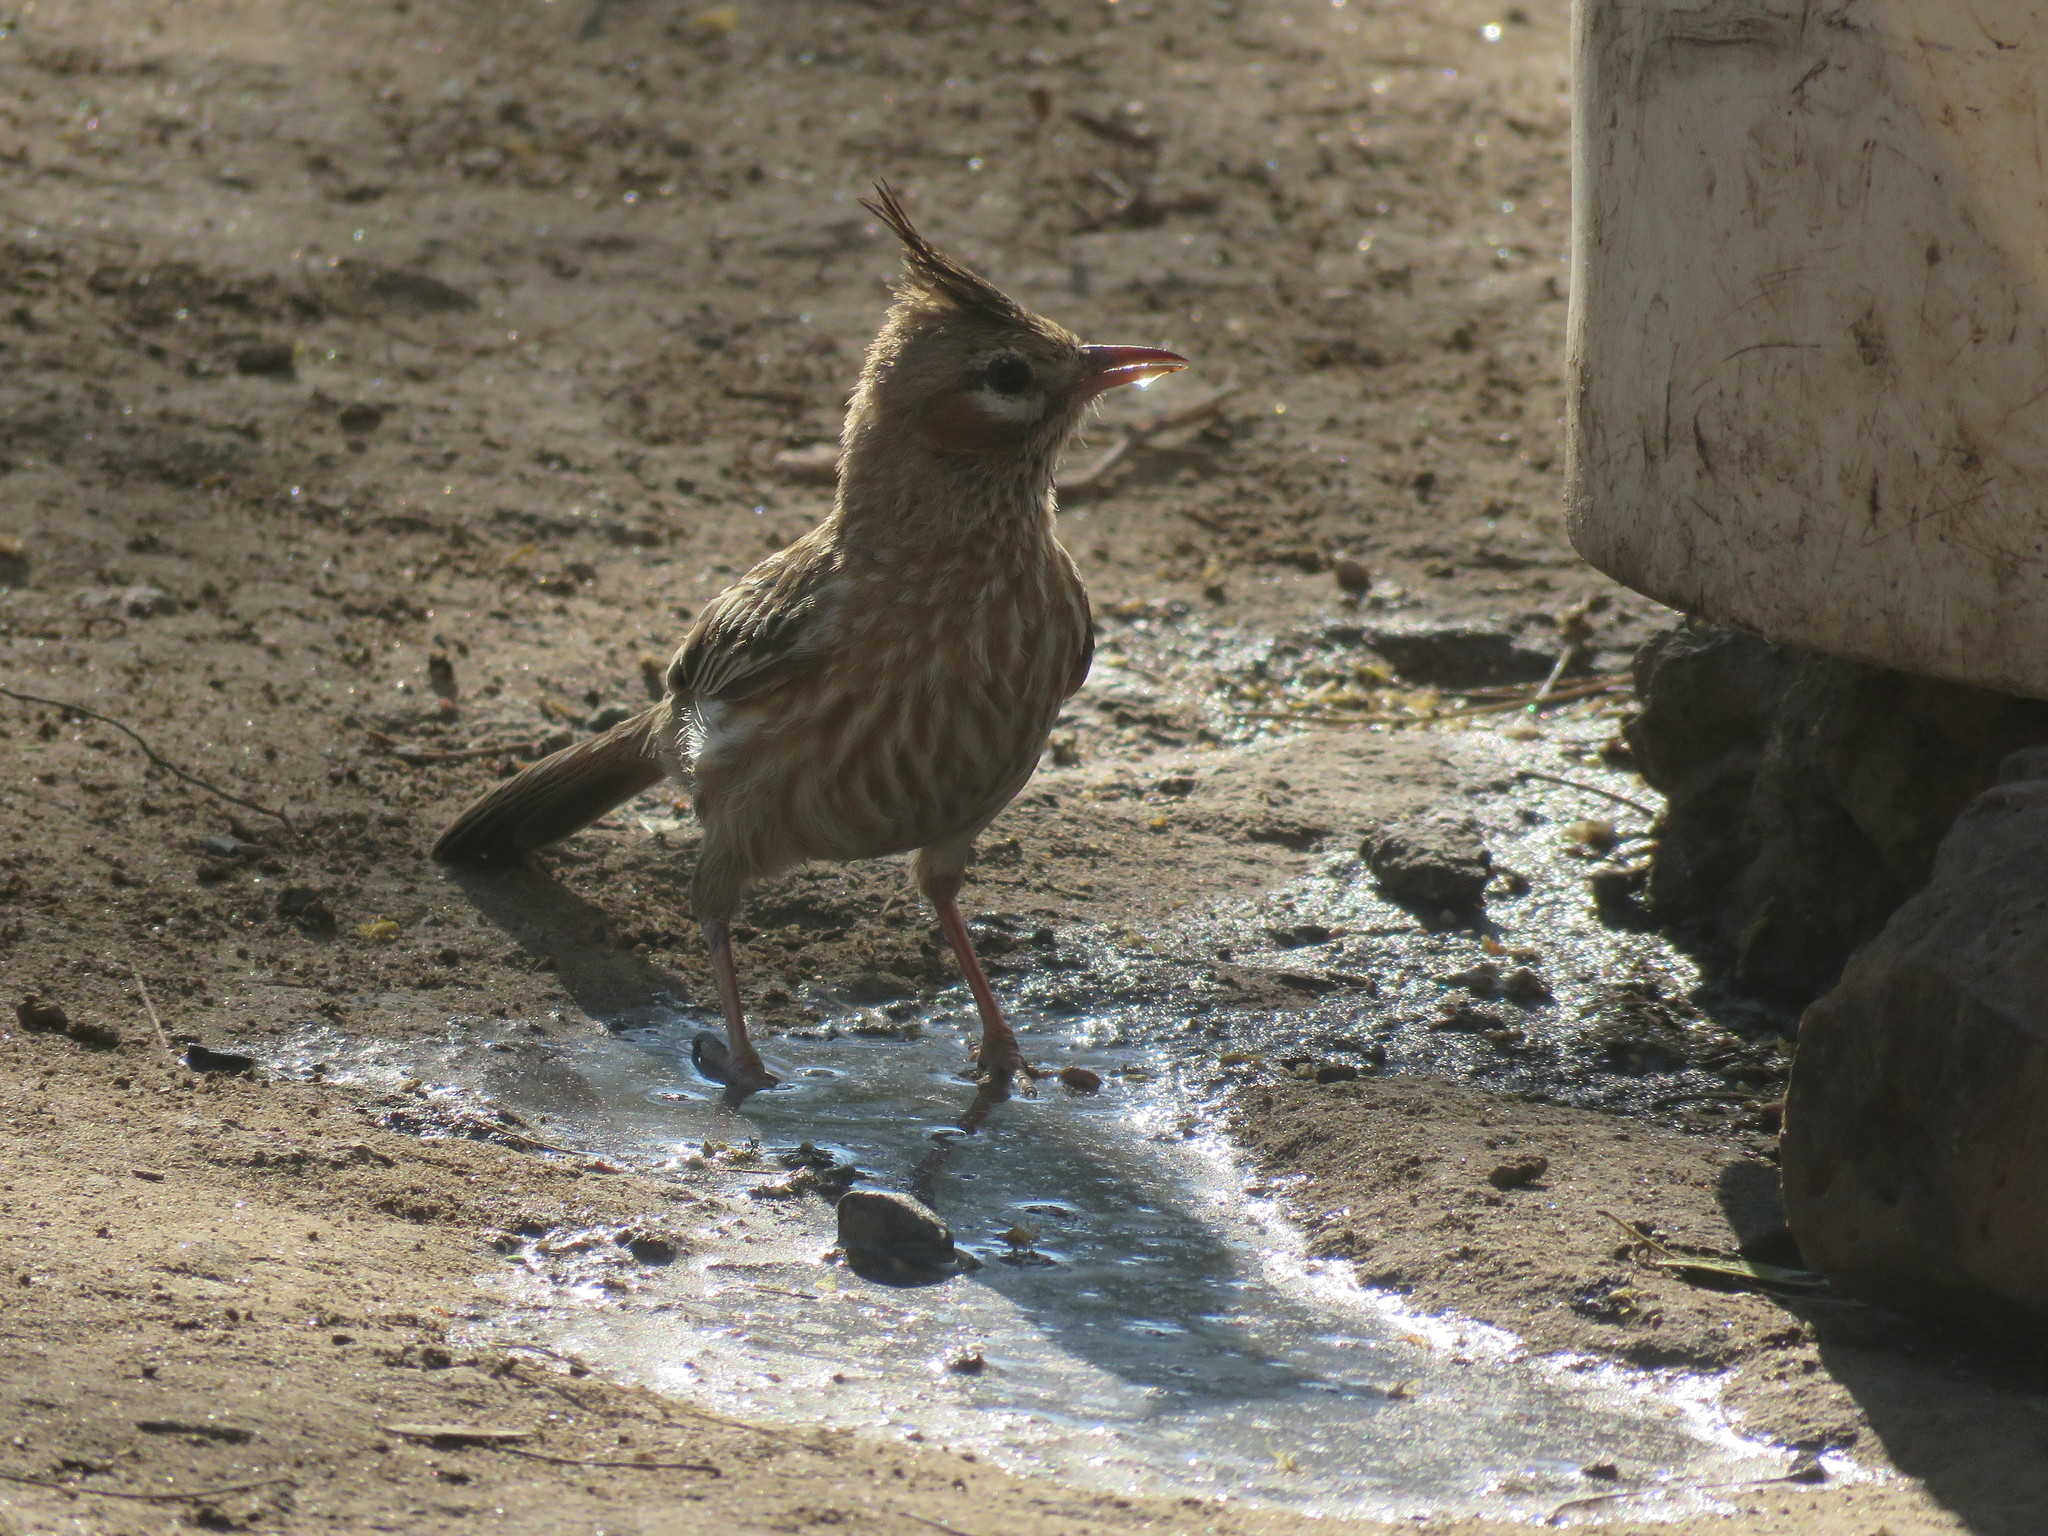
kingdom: Animalia
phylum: Chordata
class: Aves
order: Passeriformes
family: Furnariidae
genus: Coryphistera
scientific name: Coryphistera alaudina
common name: Lark-like brushrunner
